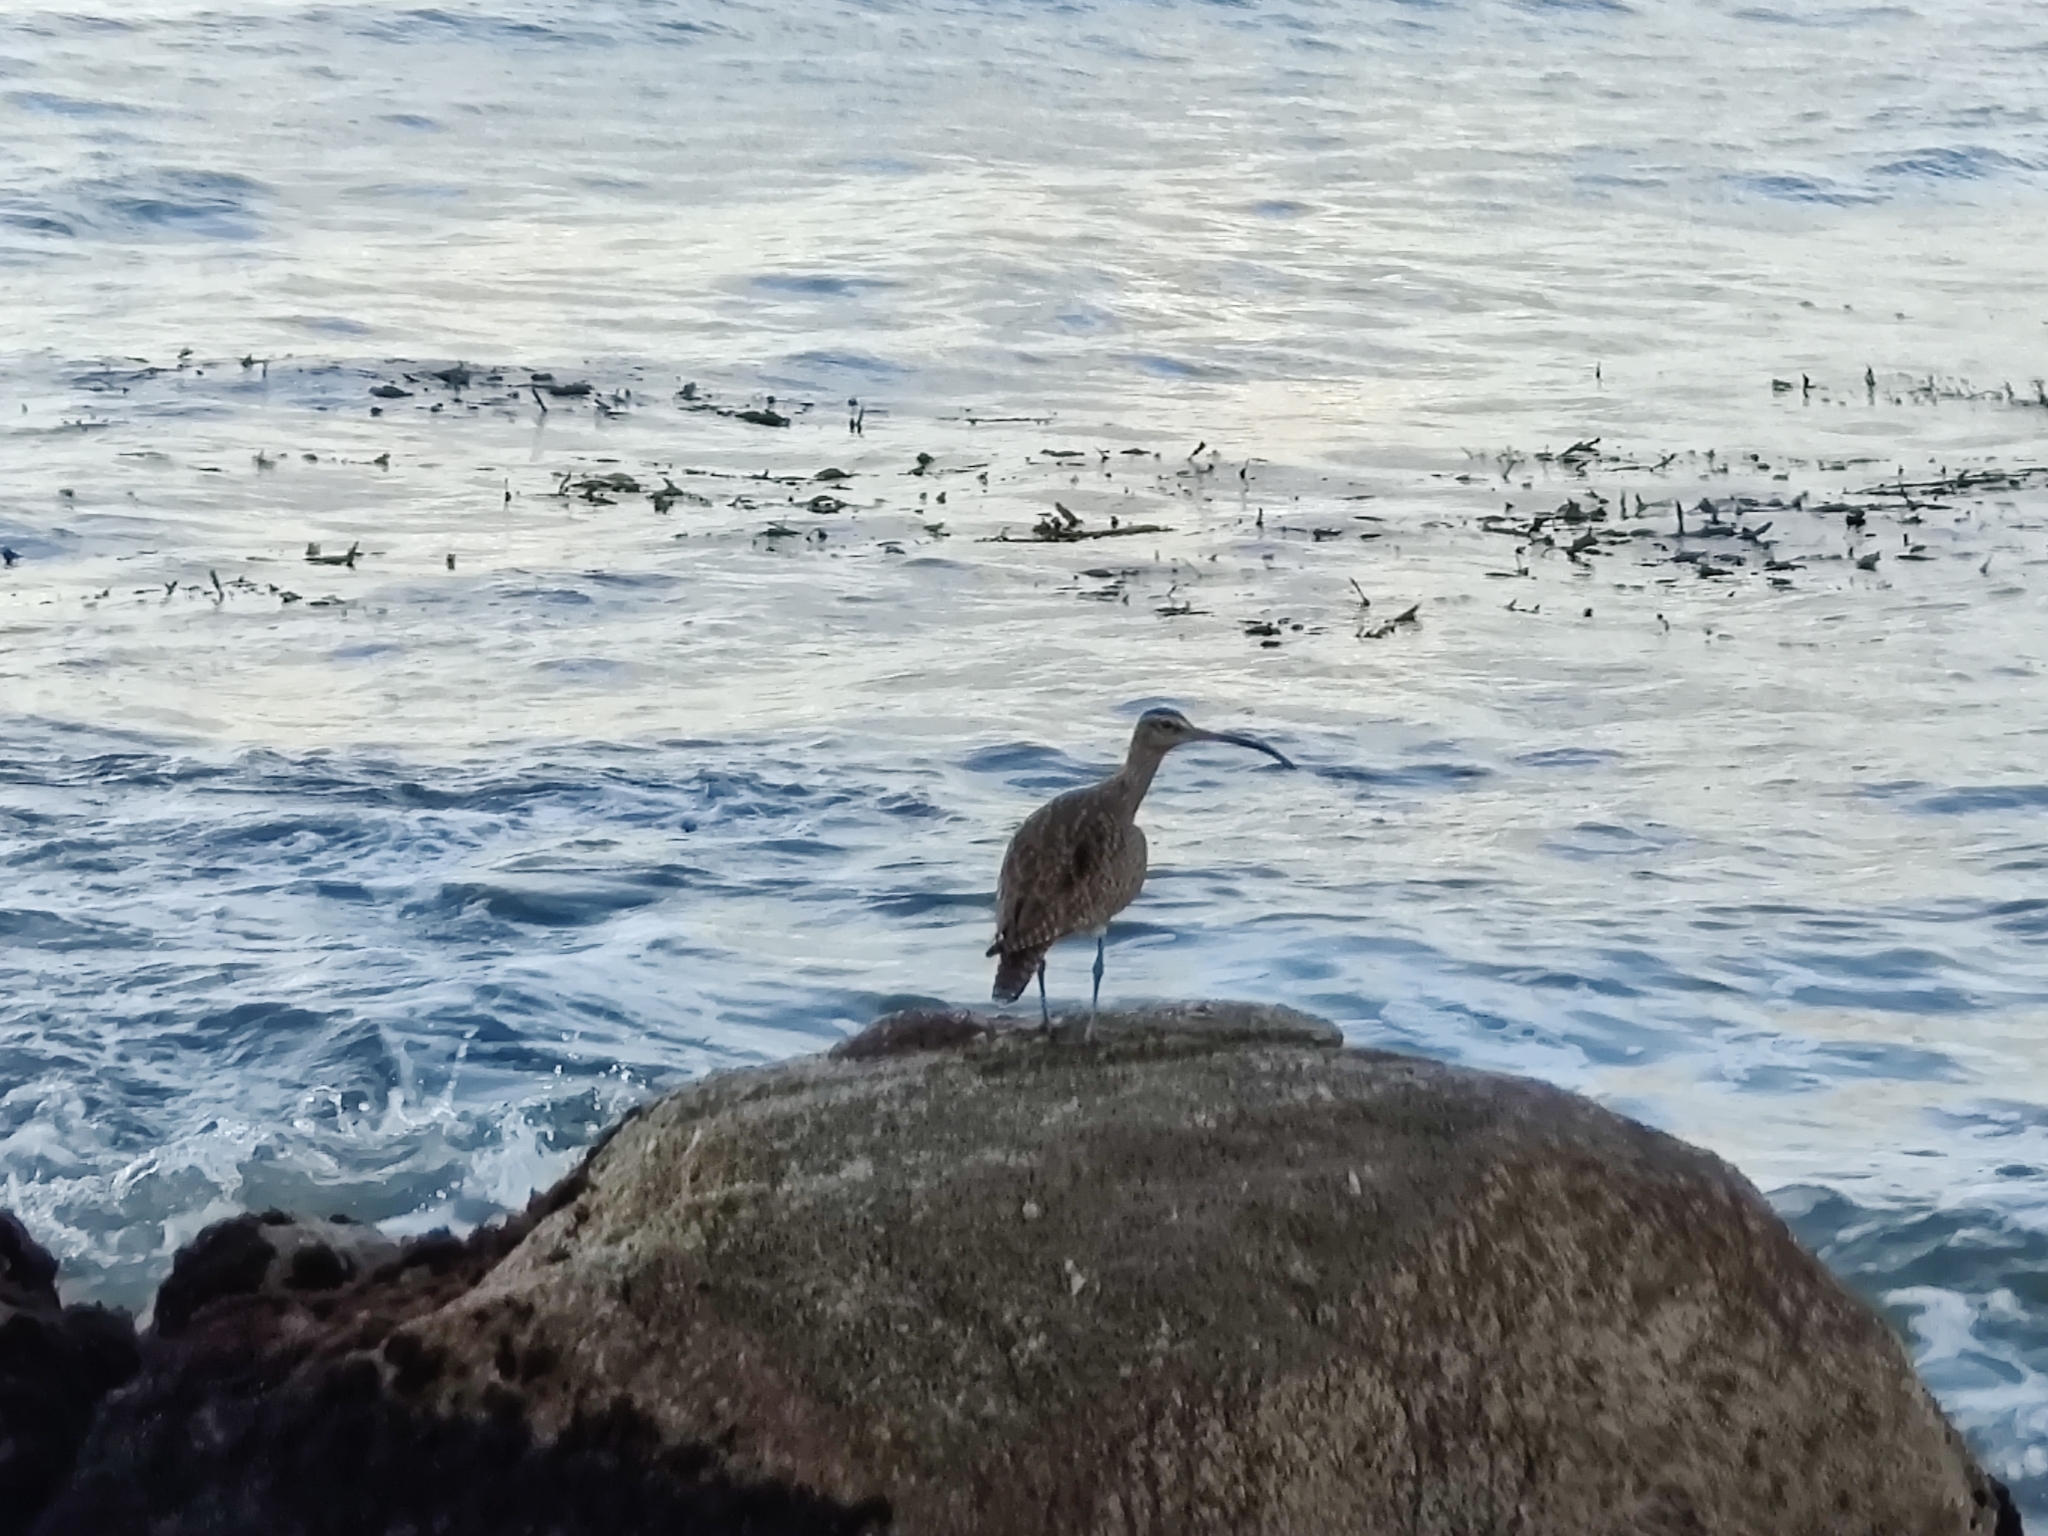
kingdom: Animalia
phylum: Chordata
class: Aves
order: Charadriiformes
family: Scolopacidae
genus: Numenius
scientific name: Numenius phaeopus
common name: Whimbrel
